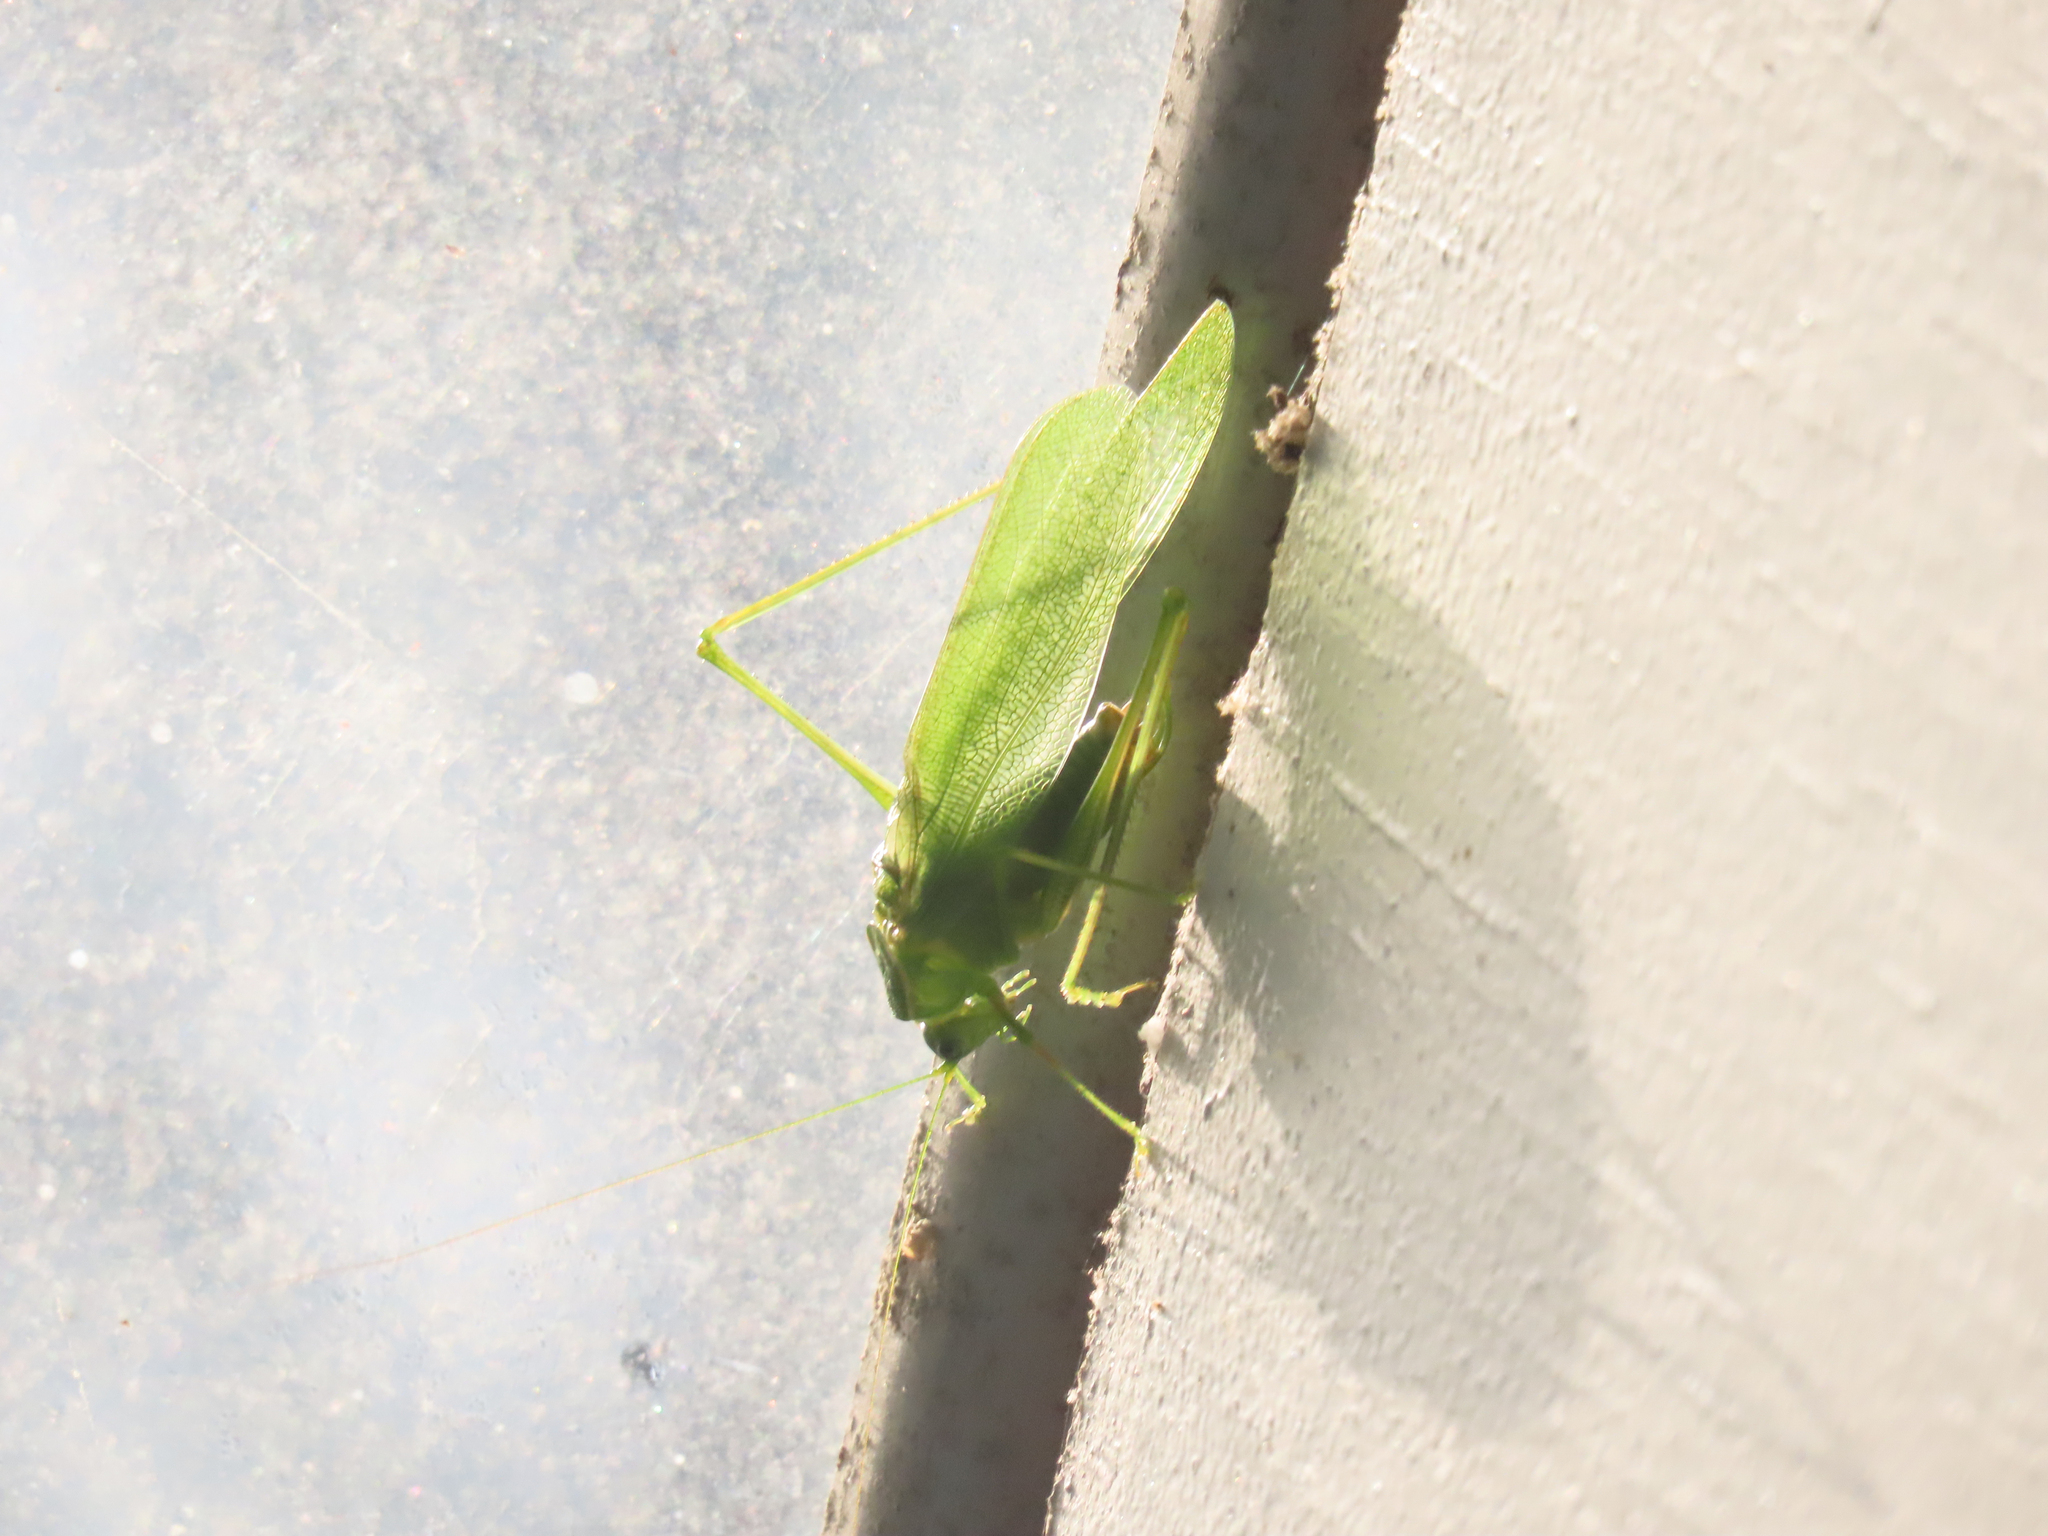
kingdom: Animalia
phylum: Arthropoda
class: Insecta
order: Orthoptera
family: Tettigoniidae
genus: Scudderia
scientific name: Scudderia septentrionalis
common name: Northern bush-katydid
